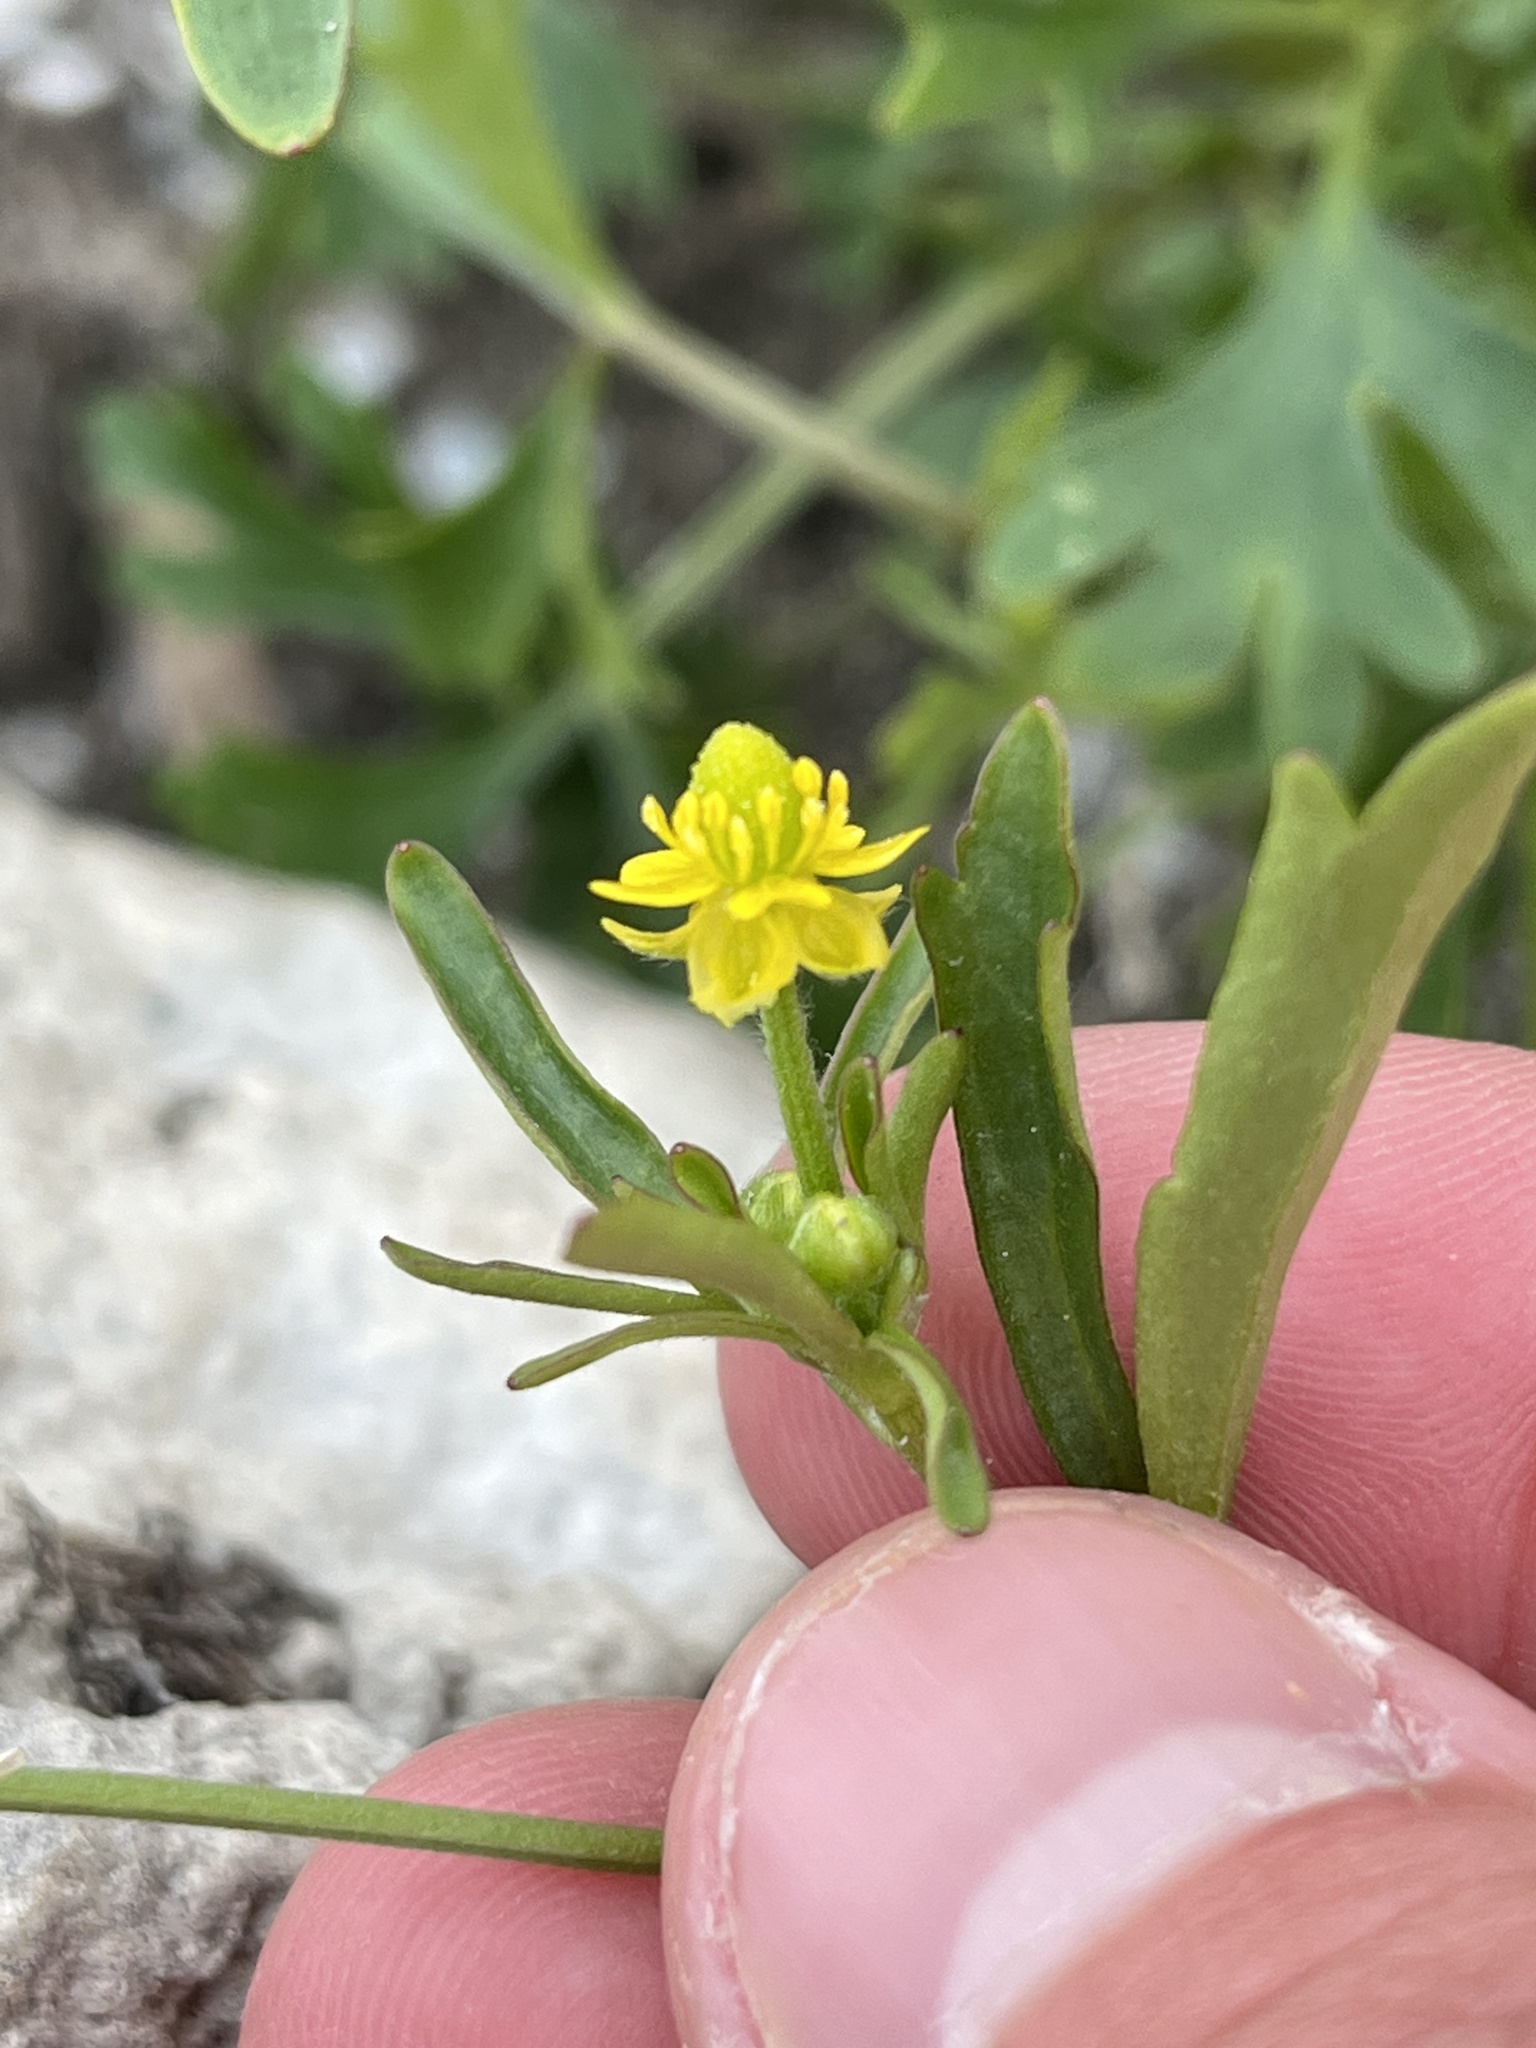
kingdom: Plantae
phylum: Tracheophyta
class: Magnoliopsida
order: Ranunculales
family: Ranunculaceae
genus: Ranunculus
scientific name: Ranunculus sceleratus
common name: Celery-leaved buttercup
